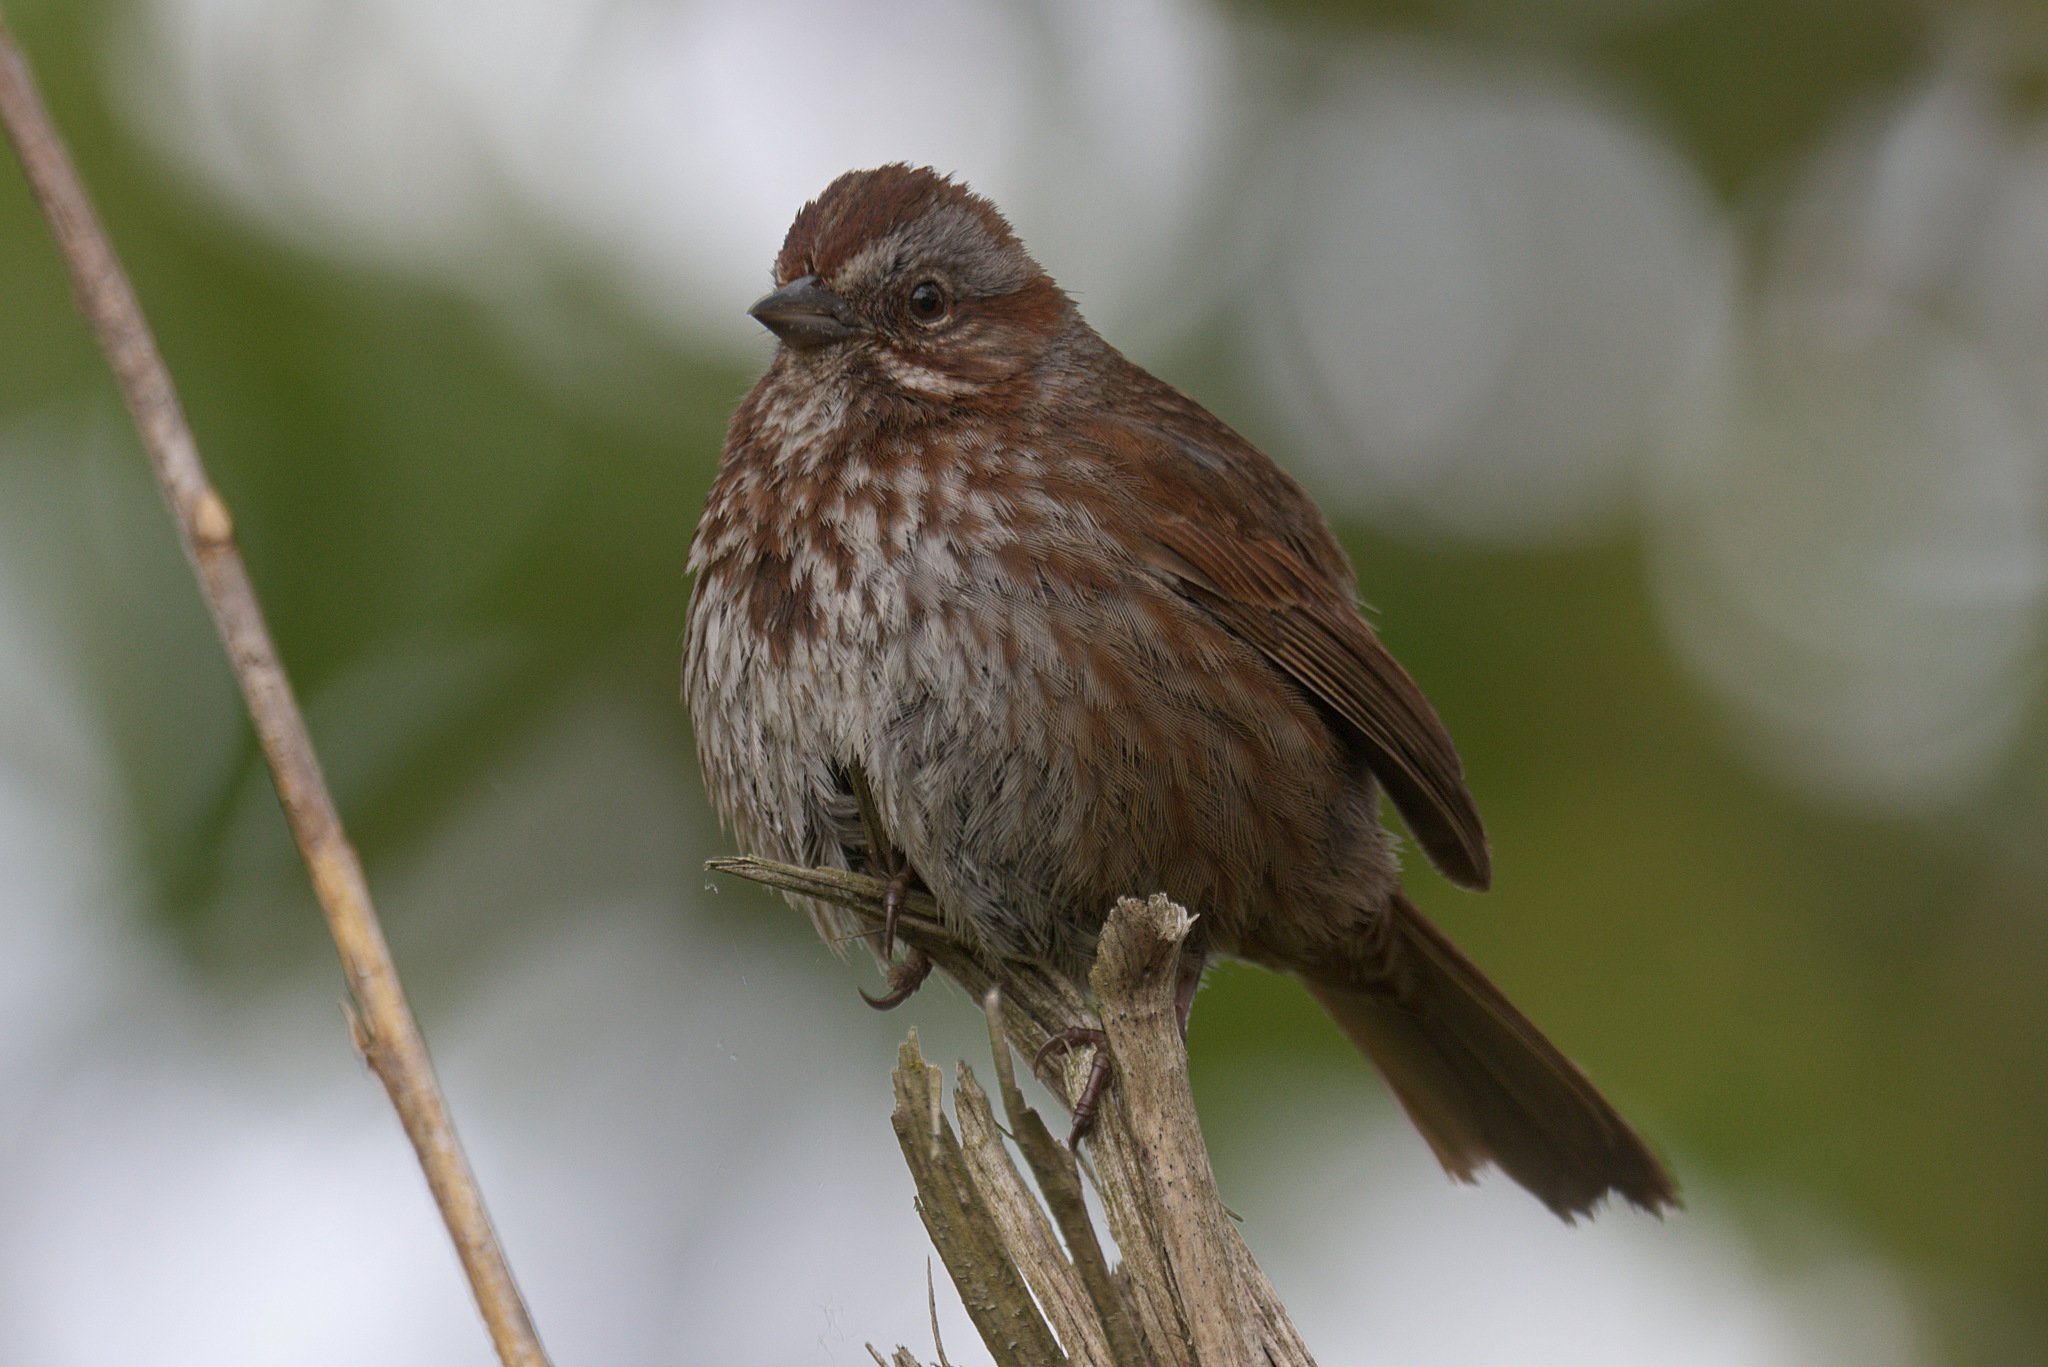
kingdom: Animalia
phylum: Chordata
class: Aves
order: Passeriformes
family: Passerellidae
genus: Melospiza
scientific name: Melospiza melodia
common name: Song sparrow
